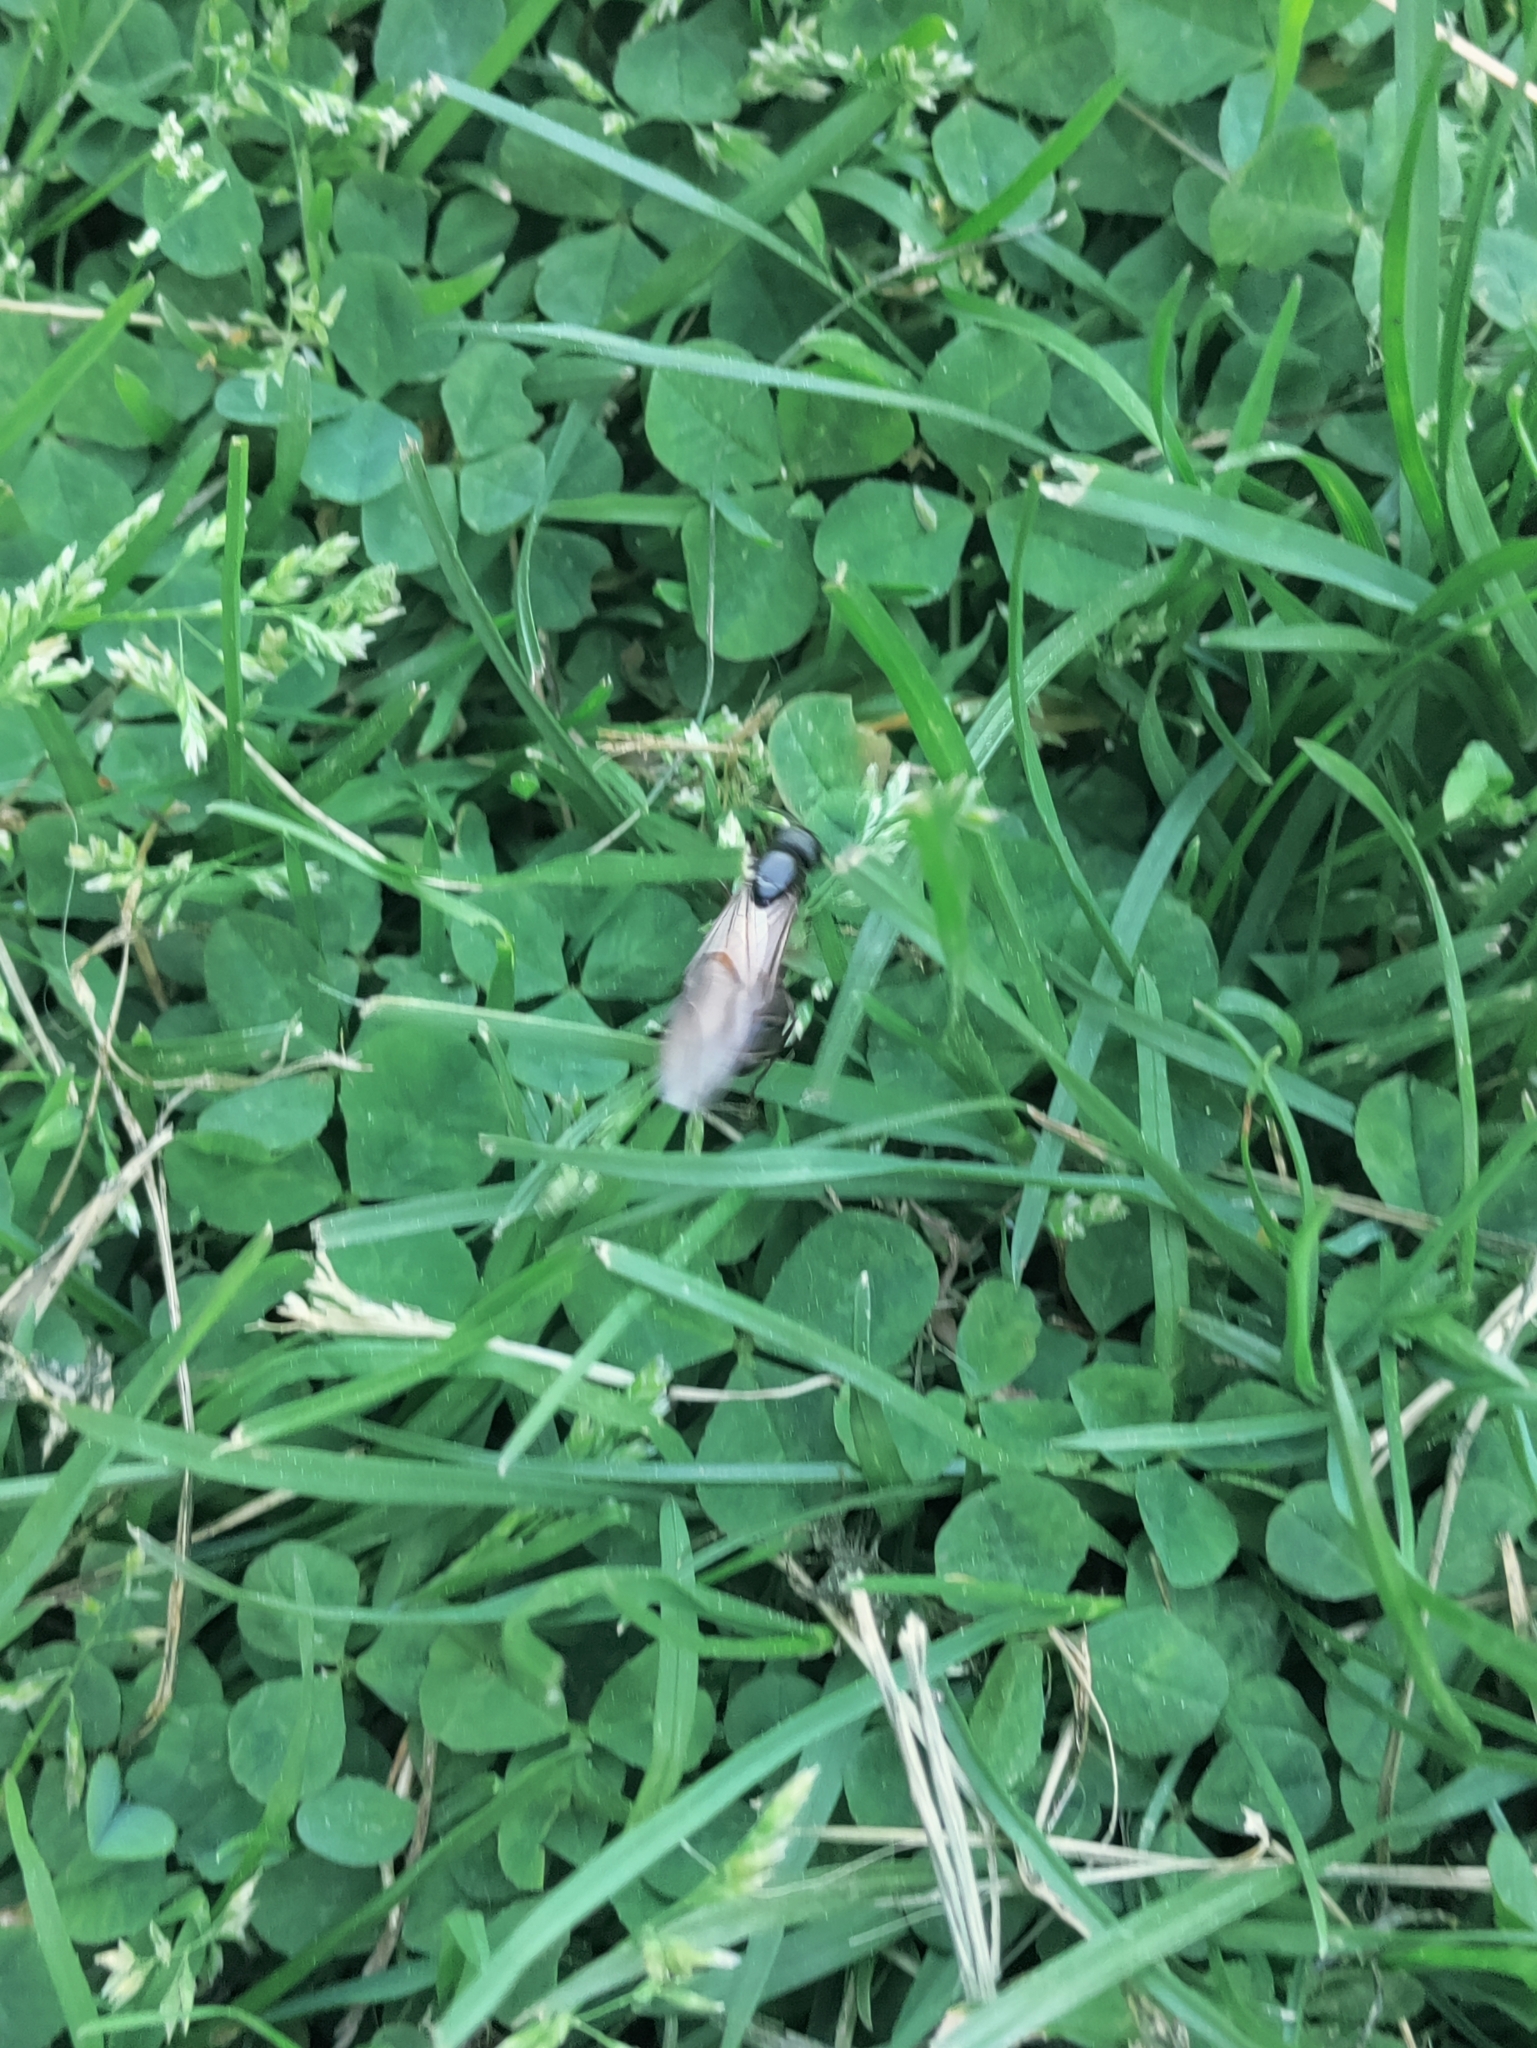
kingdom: Animalia
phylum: Arthropoda
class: Insecta
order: Hymenoptera
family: Formicidae
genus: Camponotus
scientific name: Camponotus pennsylvanicus
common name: Black carpenter ant
